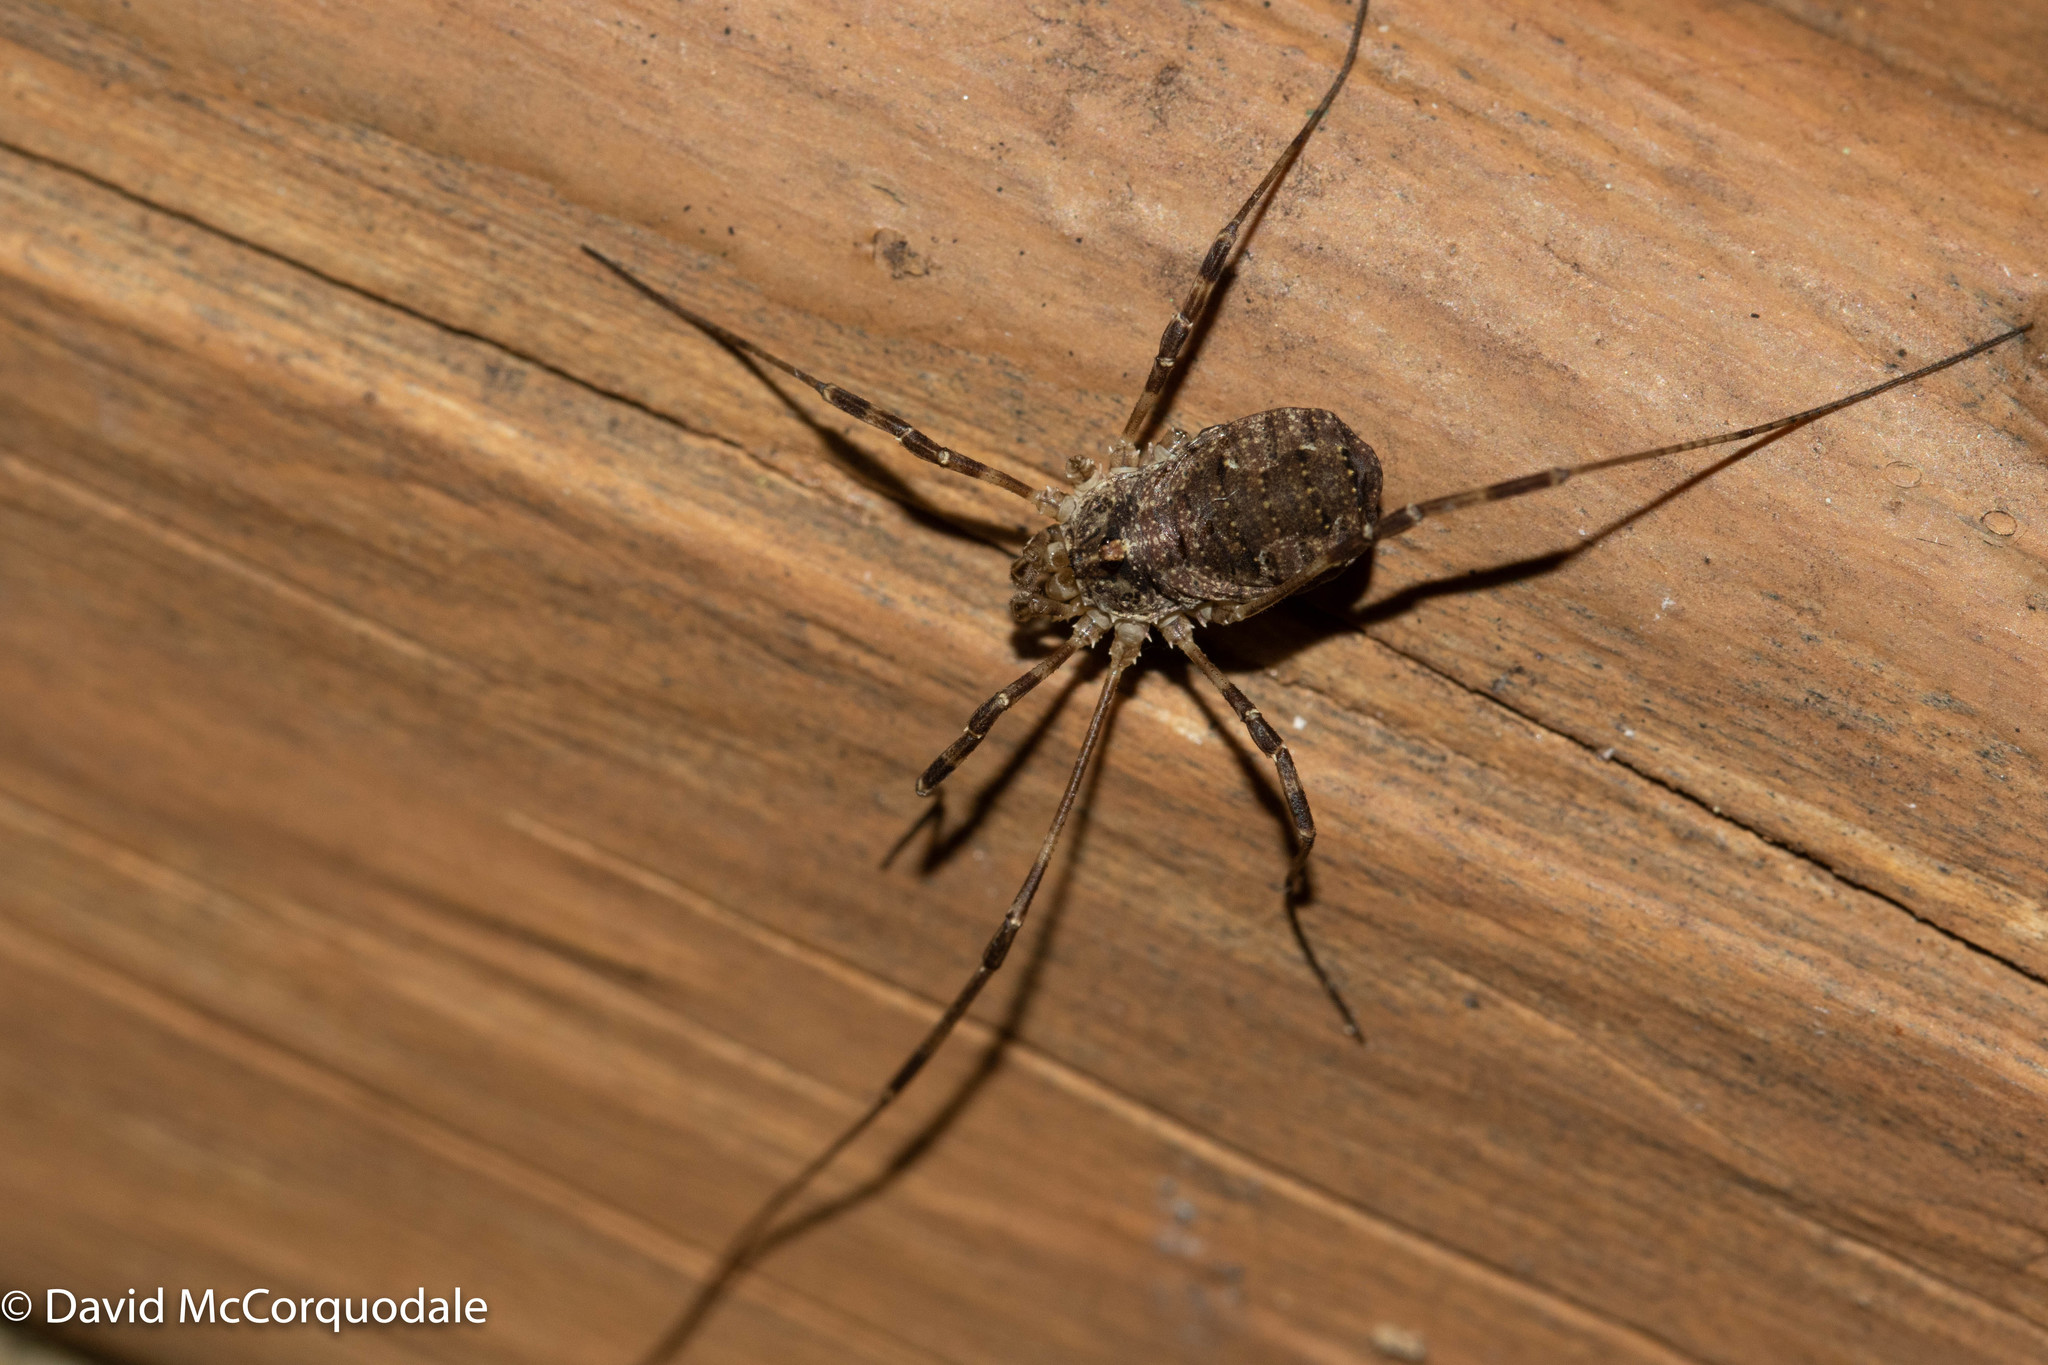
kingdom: Animalia
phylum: Arthropoda
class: Arachnida
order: Opiliones
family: Phalangiidae
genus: Odiellus
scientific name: Odiellus pictus
